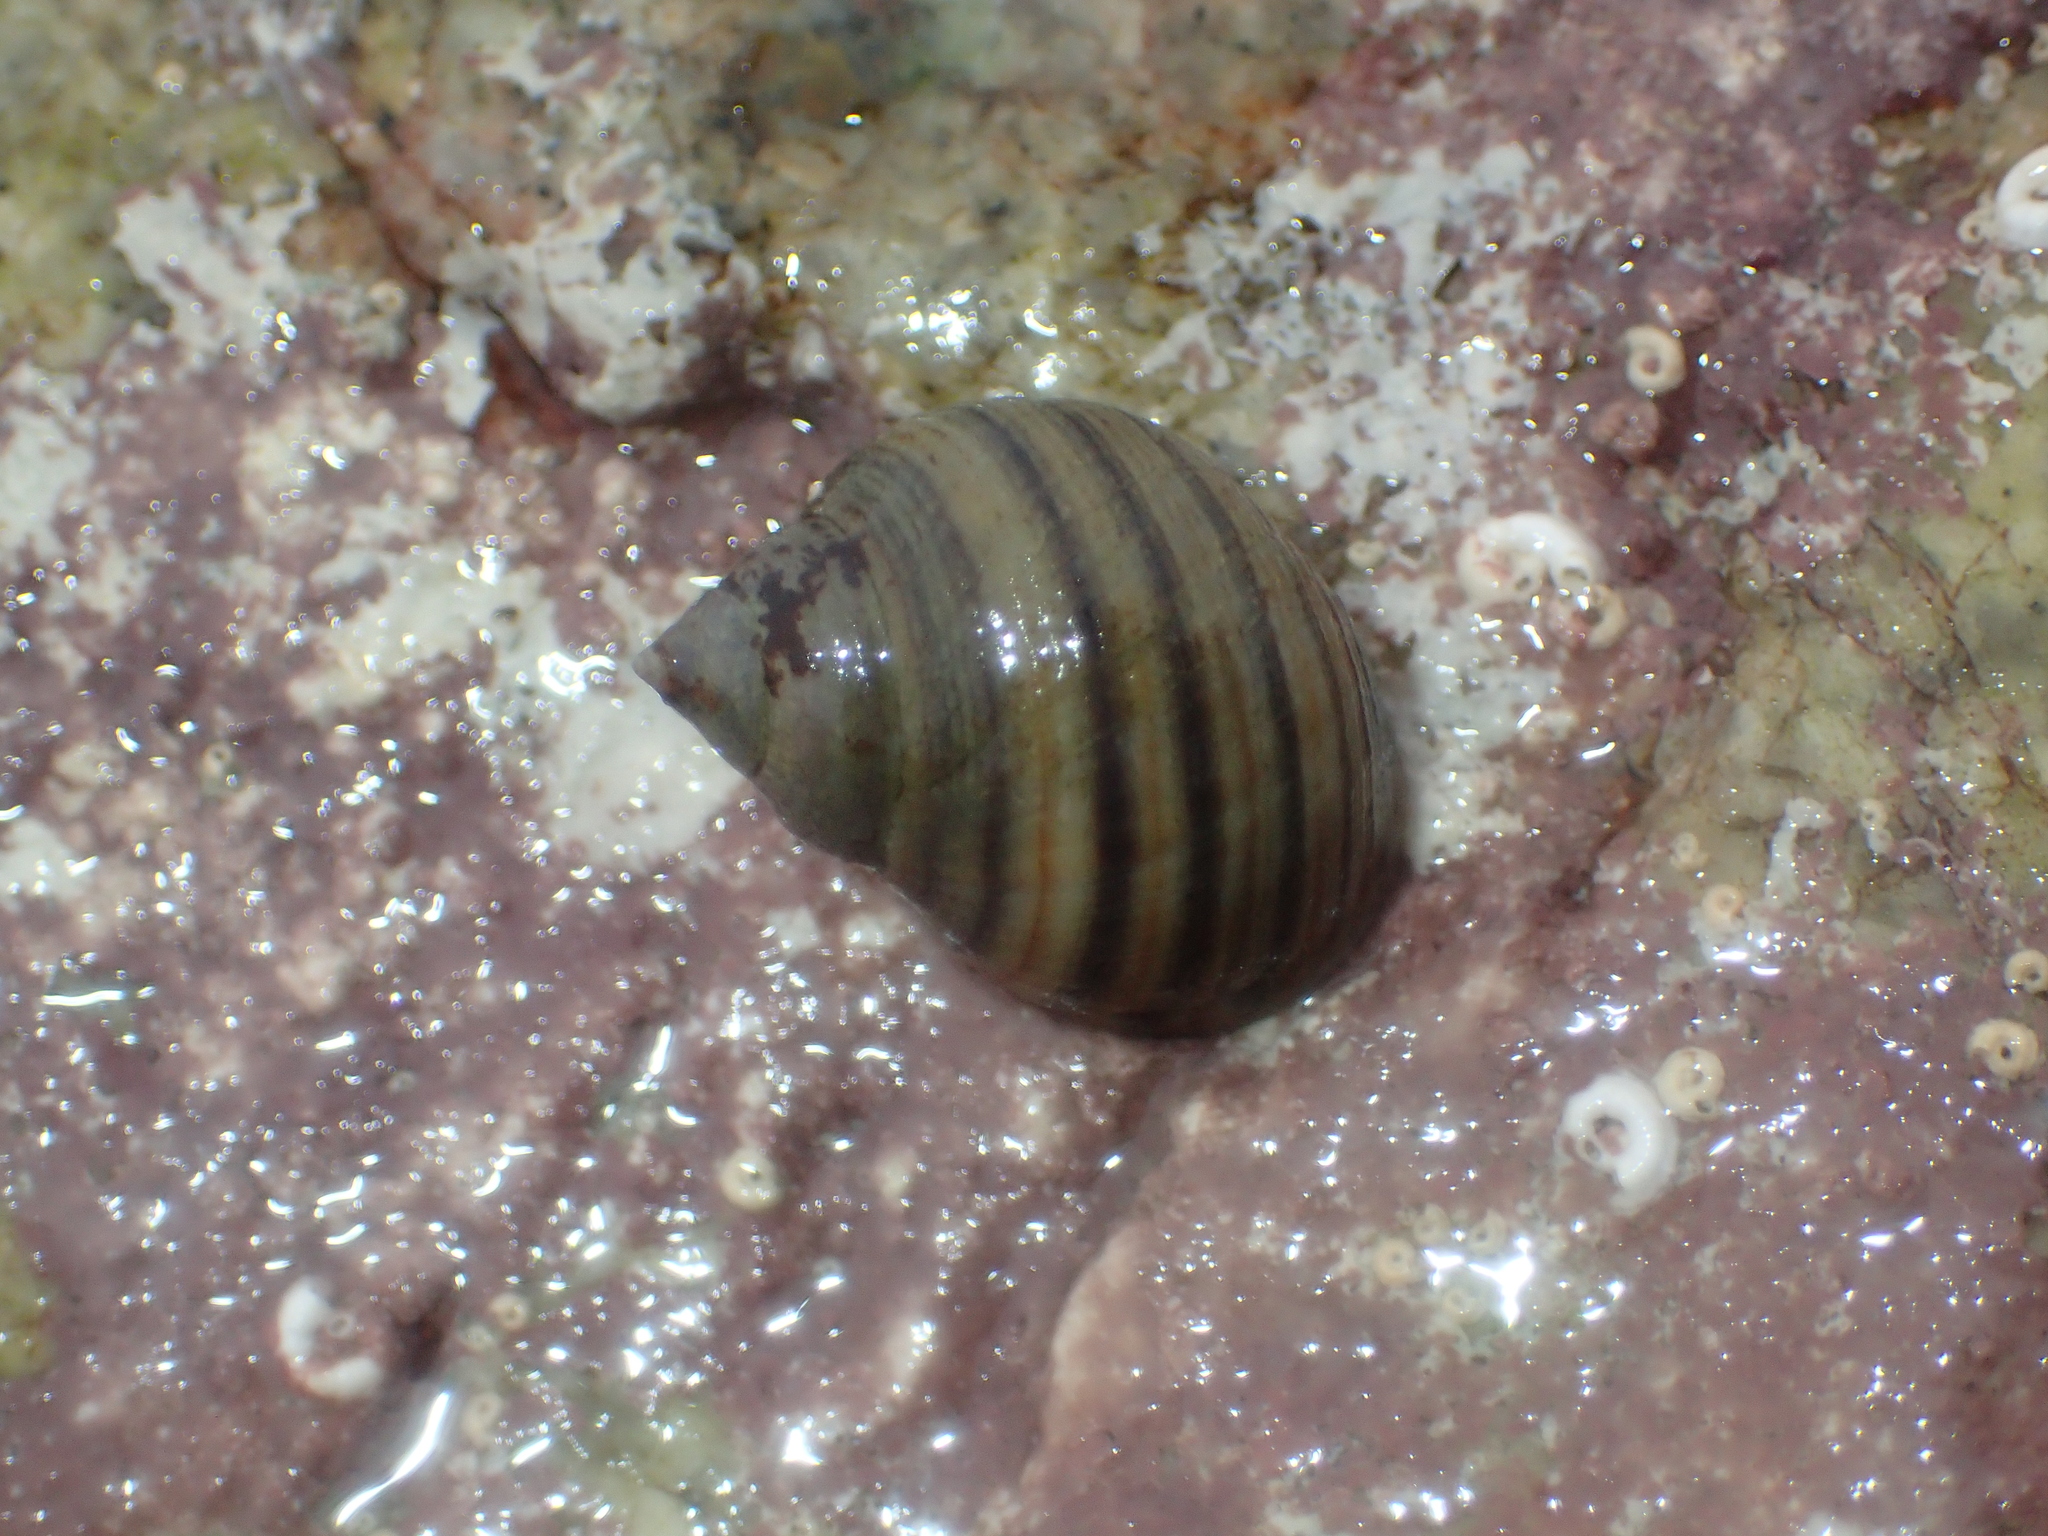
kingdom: Animalia
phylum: Mollusca
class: Gastropoda
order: Littorinimorpha
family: Littorinidae
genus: Littorina
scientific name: Littorina littorea
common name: Common periwinkle
